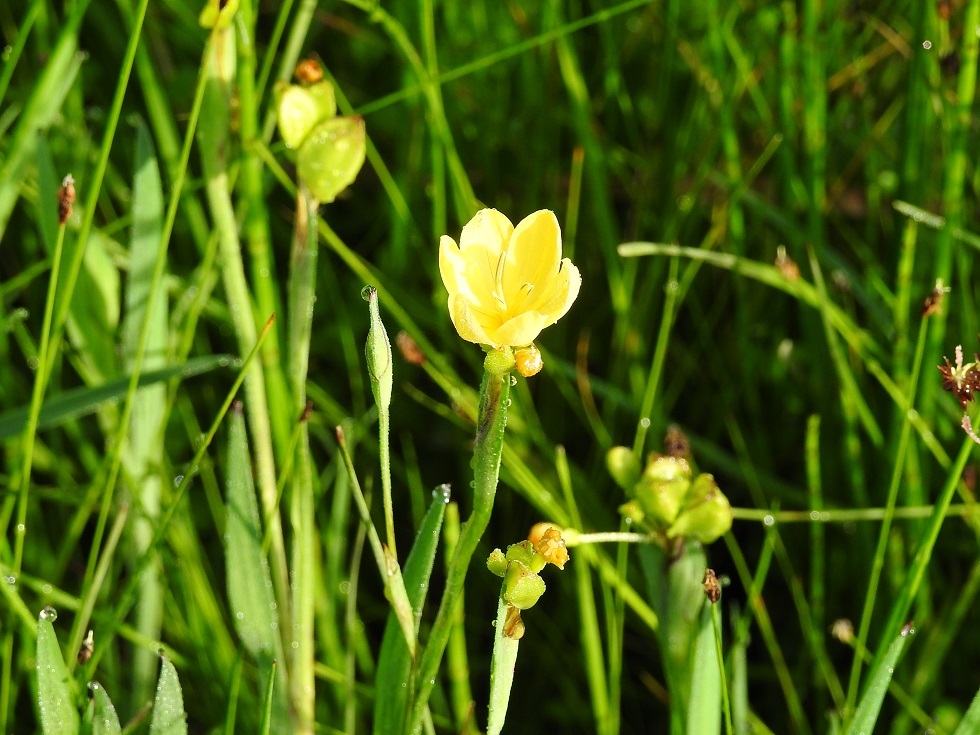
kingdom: Plantae
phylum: Tracheophyta
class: Liliopsida
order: Asparagales
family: Iridaceae
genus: Sisyrinchium
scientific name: Sisyrinchium angustissimum
